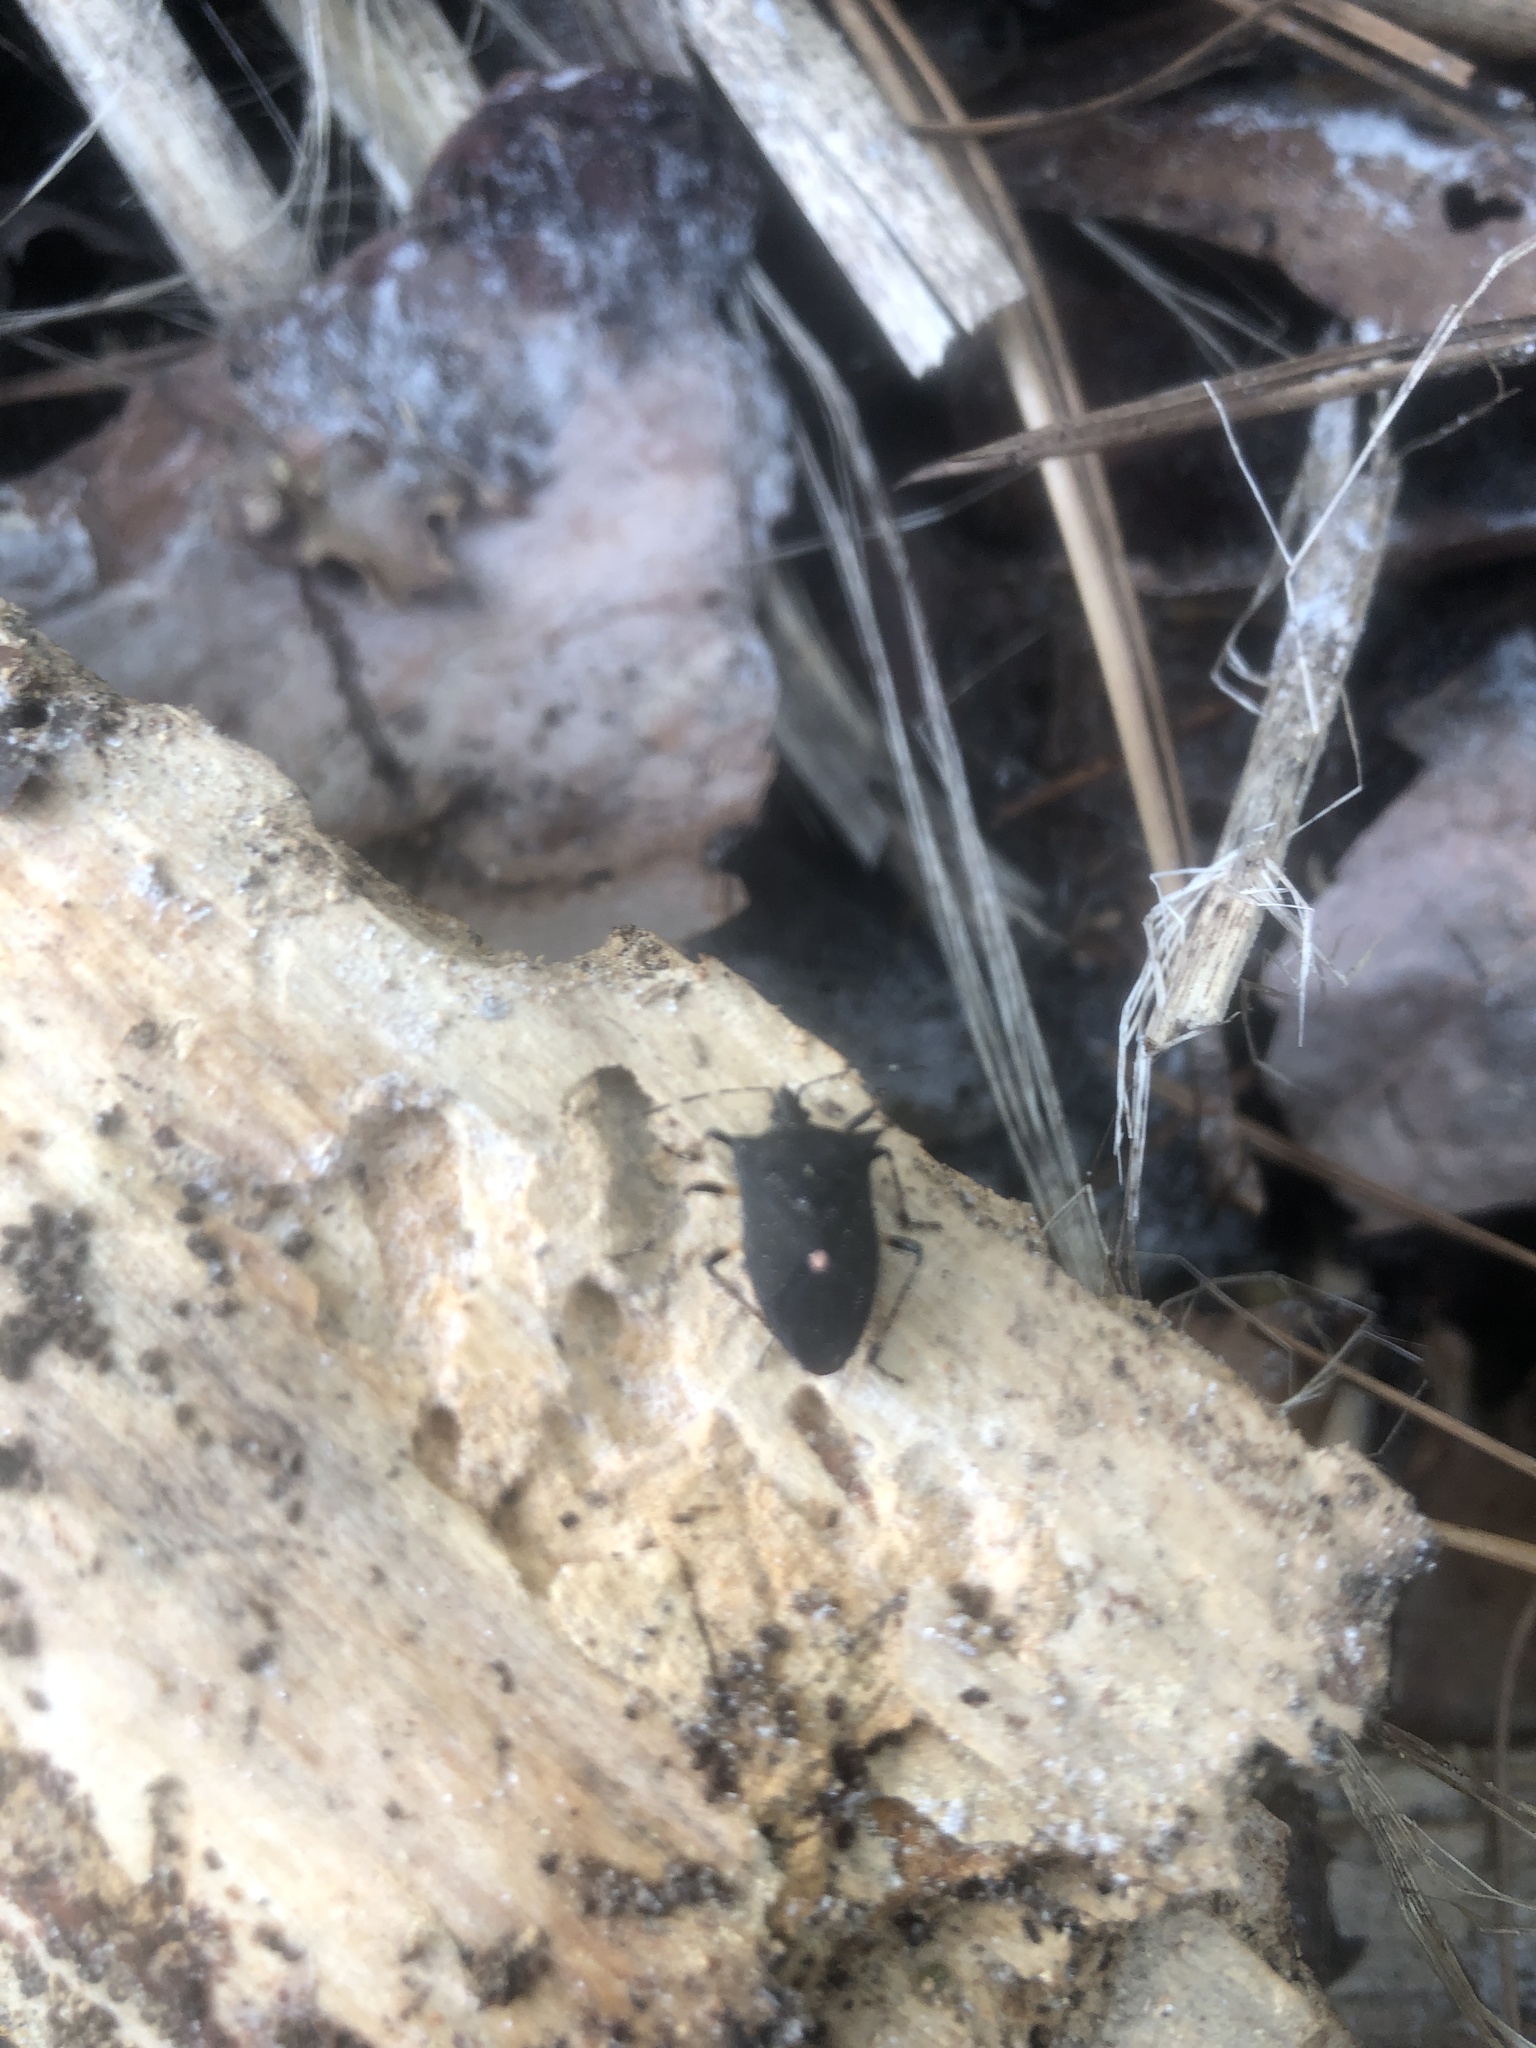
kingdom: Animalia
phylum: Arthropoda
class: Insecta
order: Hemiptera
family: Pentatomidae
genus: Proxys
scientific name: Proxys punctulatus
